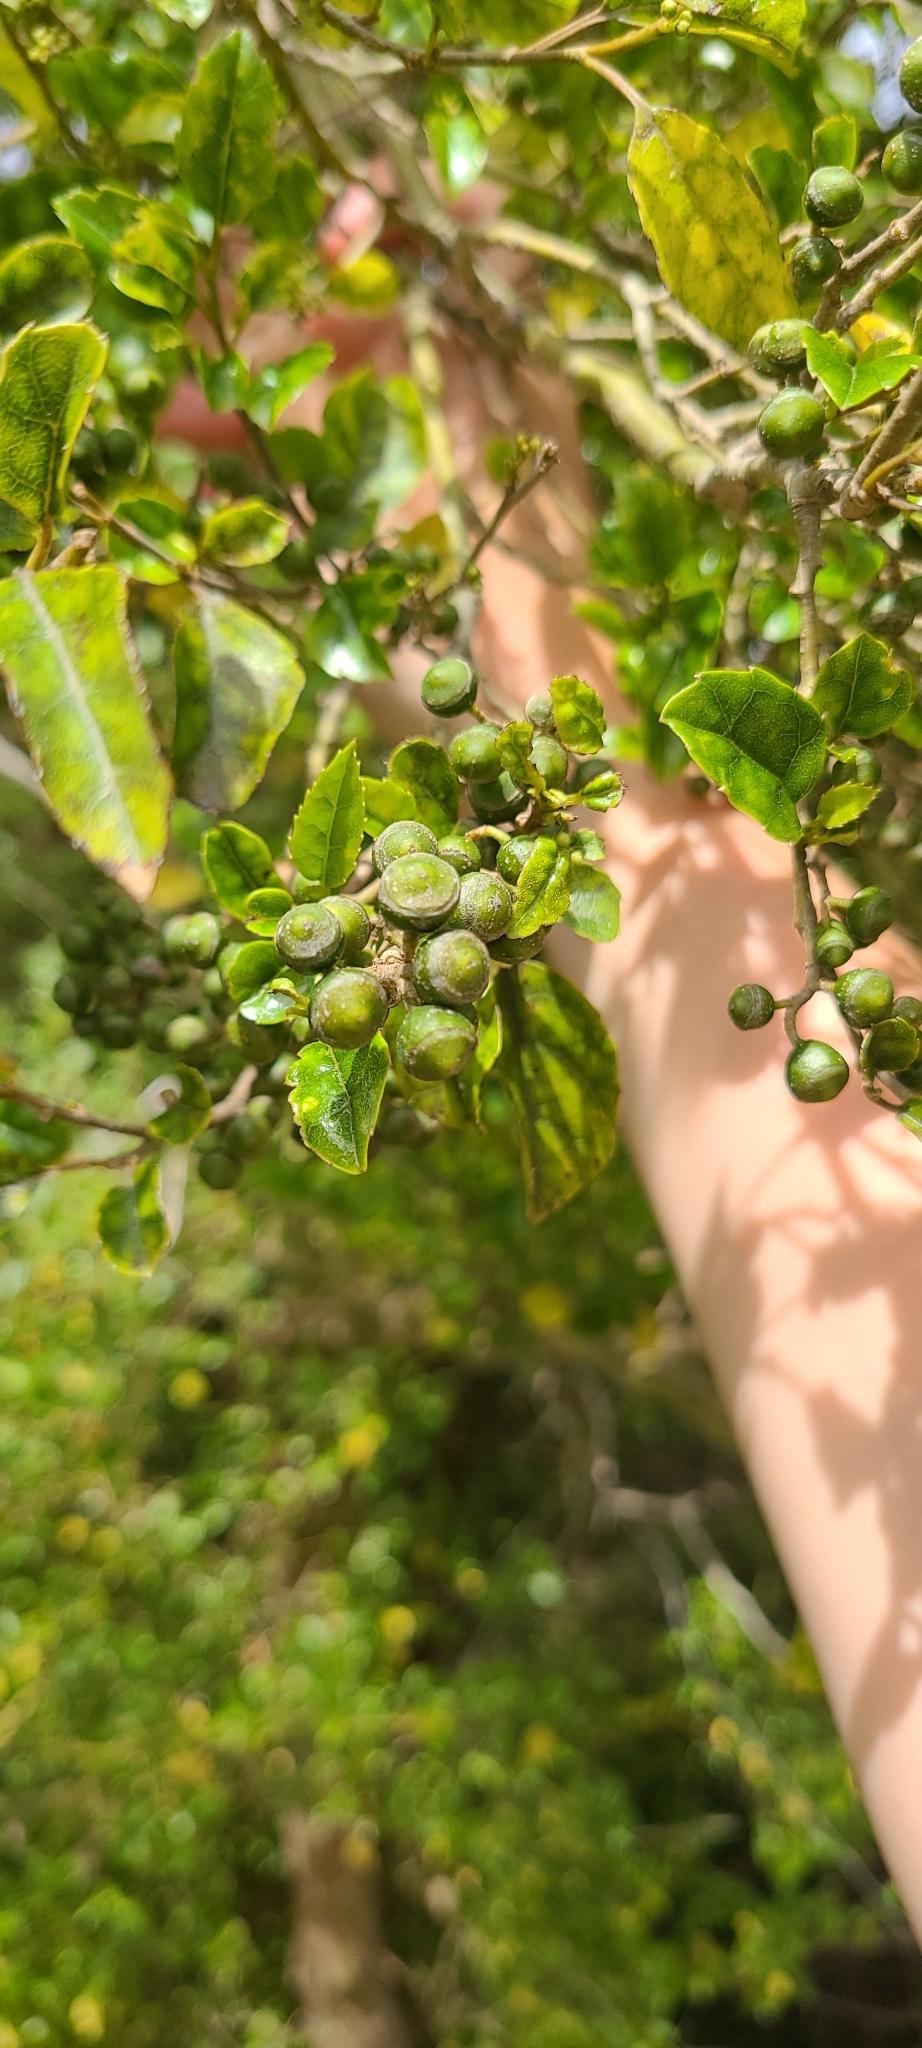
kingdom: Plantae
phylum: Tracheophyta
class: Magnoliopsida
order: Asterales
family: Rousseaceae
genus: Carpodetus
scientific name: Carpodetus serratus
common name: White mapau
